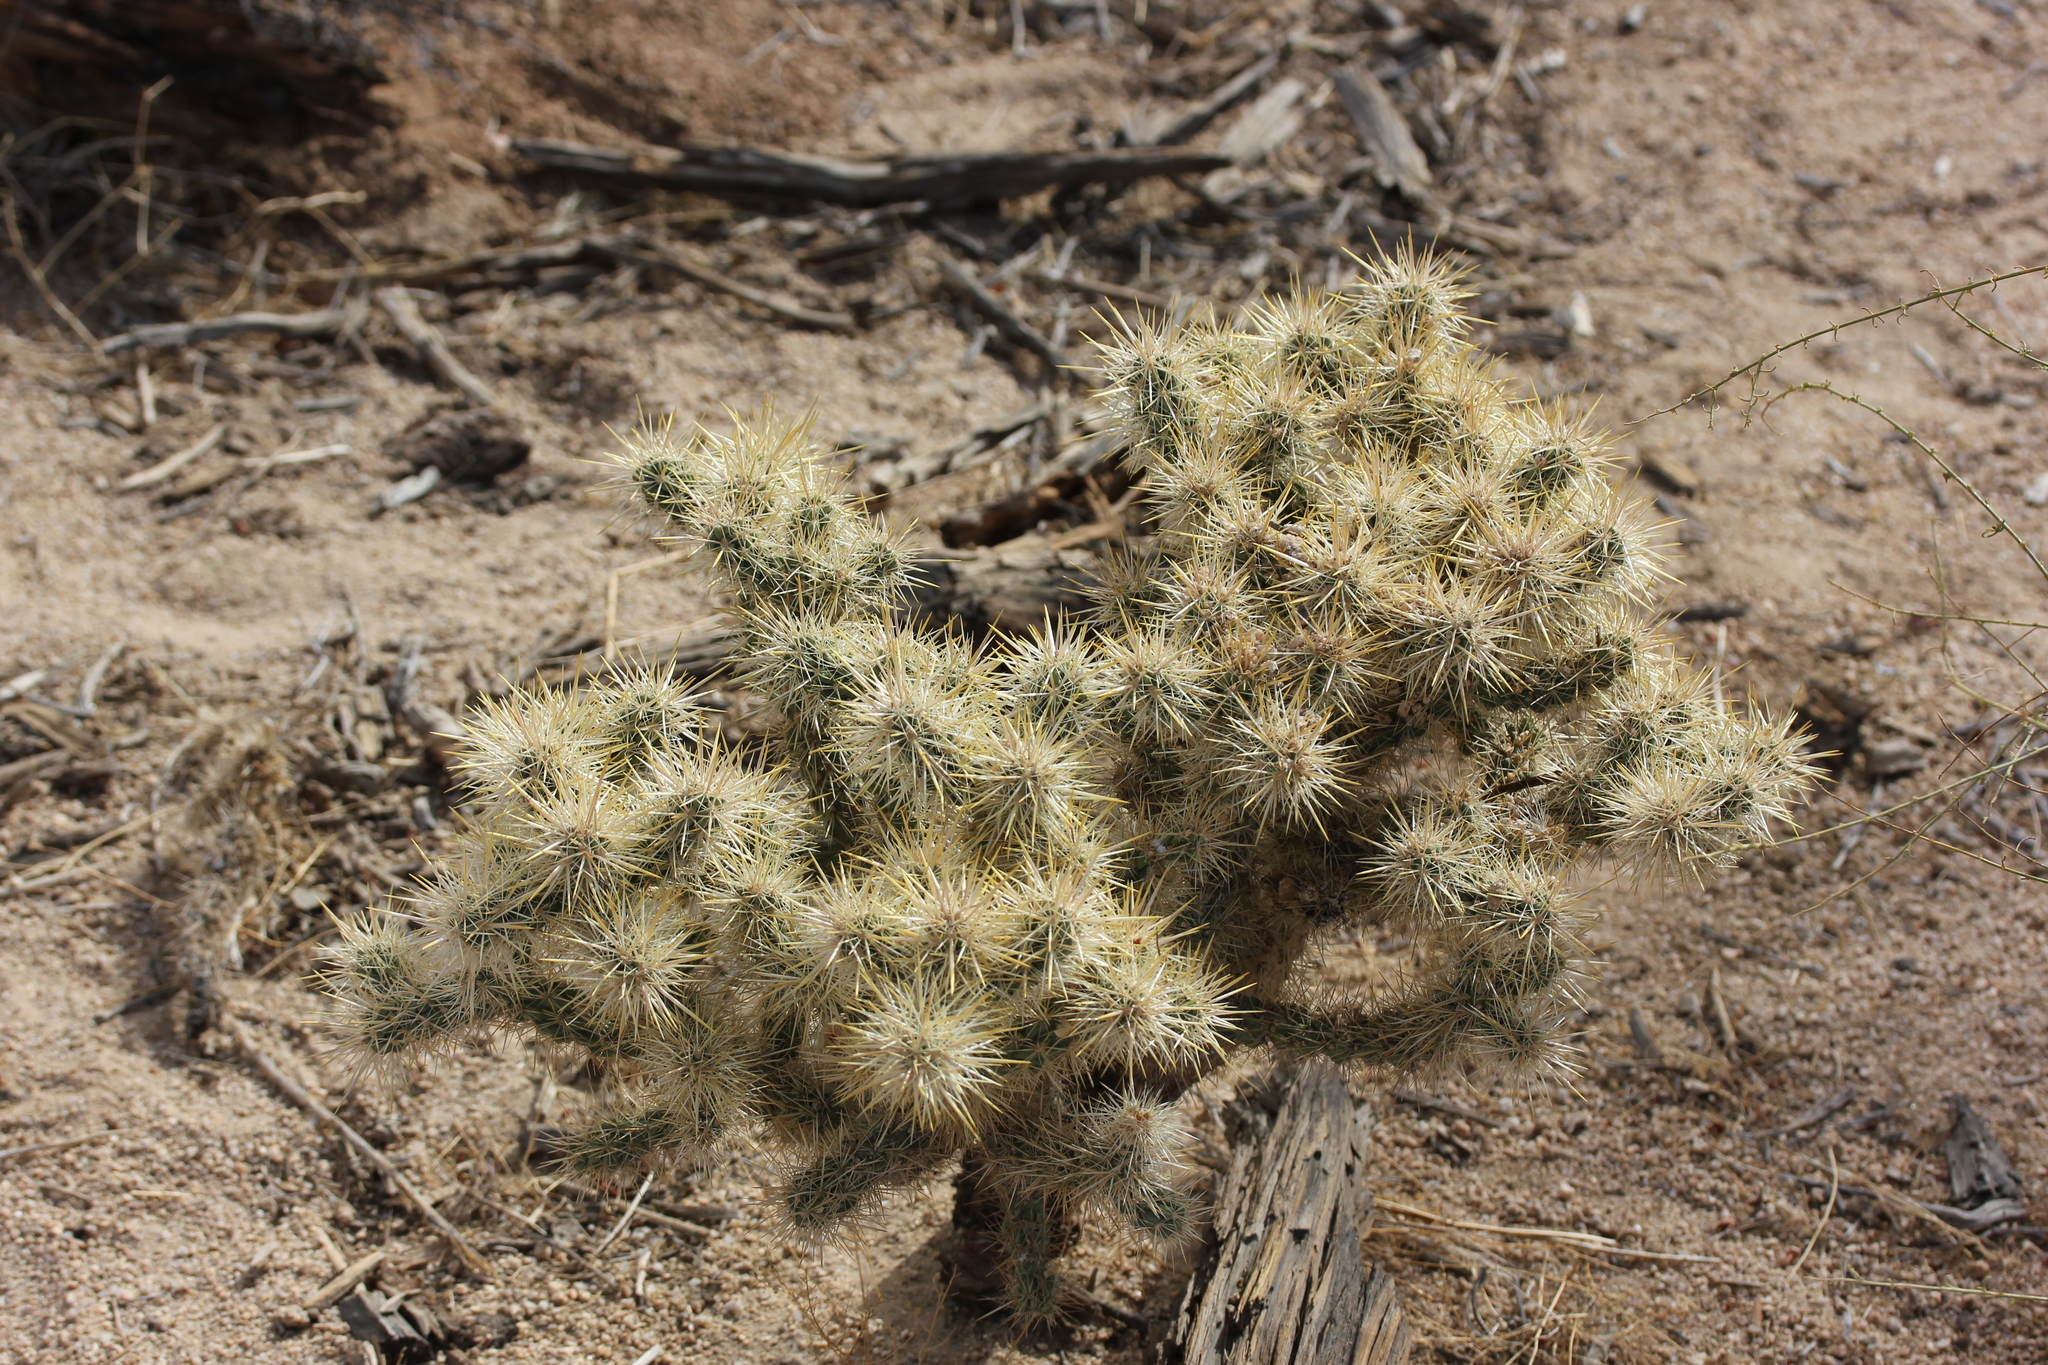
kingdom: Plantae
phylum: Tracheophyta
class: Magnoliopsida
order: Caryophyllales
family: Cactaceae
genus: Cylindropuntia
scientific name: Cylindropuntia echinocarpa
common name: Ground cholla
